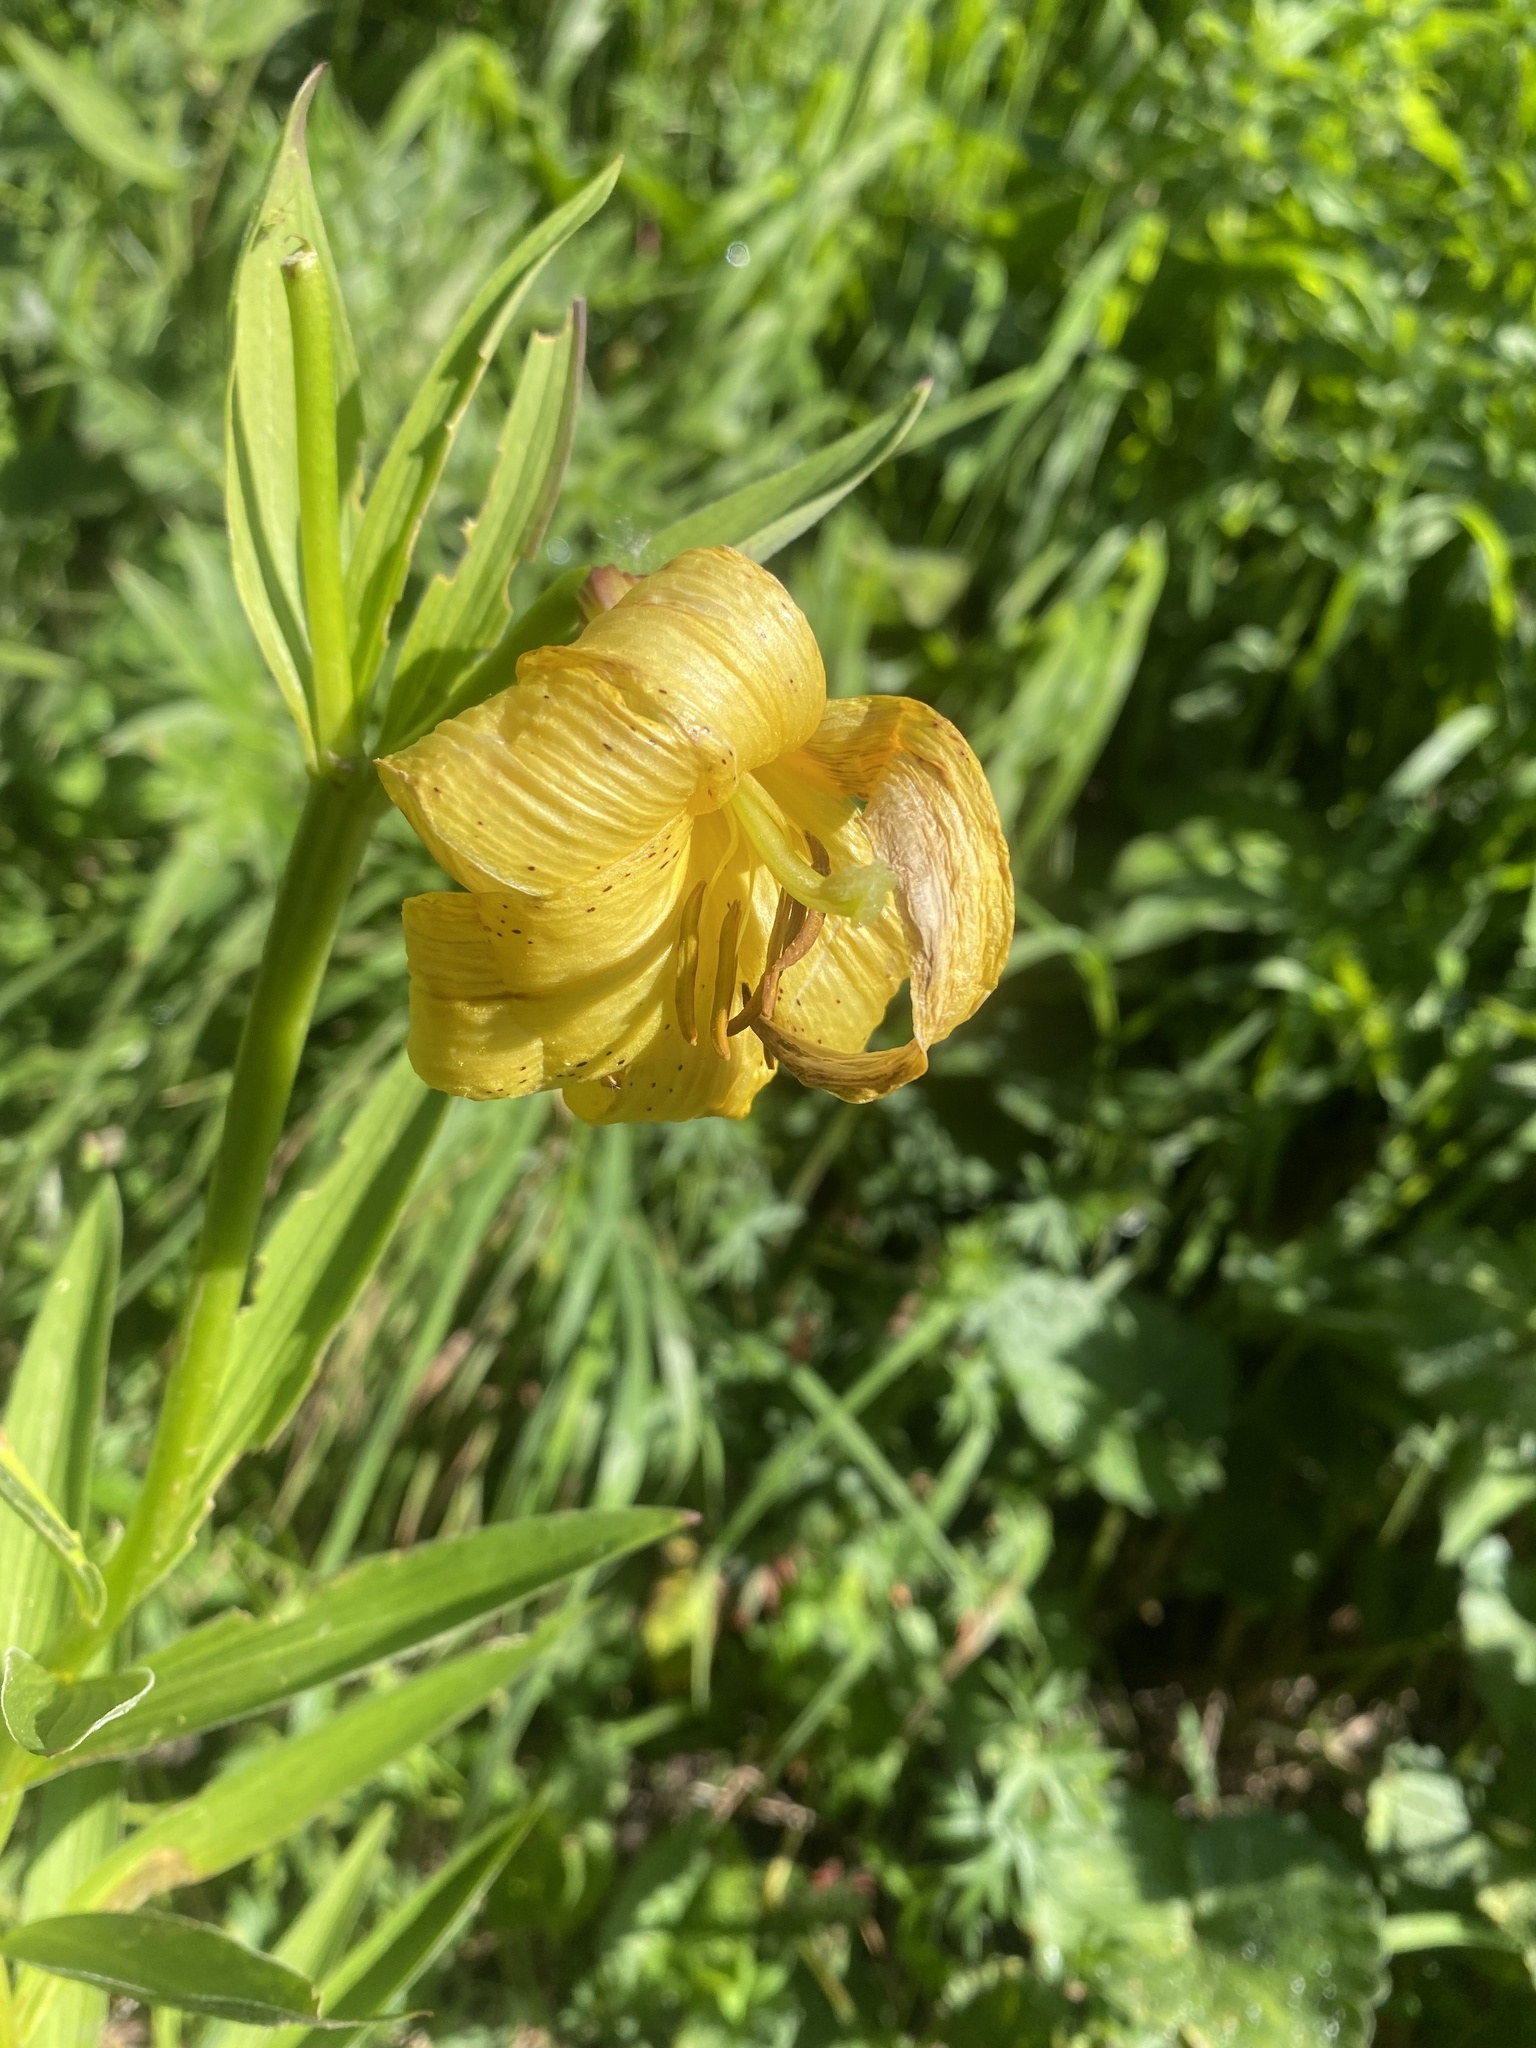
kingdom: Plantae
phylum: Tracheophyta
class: Liliopsida
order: Liliales
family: Liliaceae
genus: Lilium
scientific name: Lilium monadelphum
